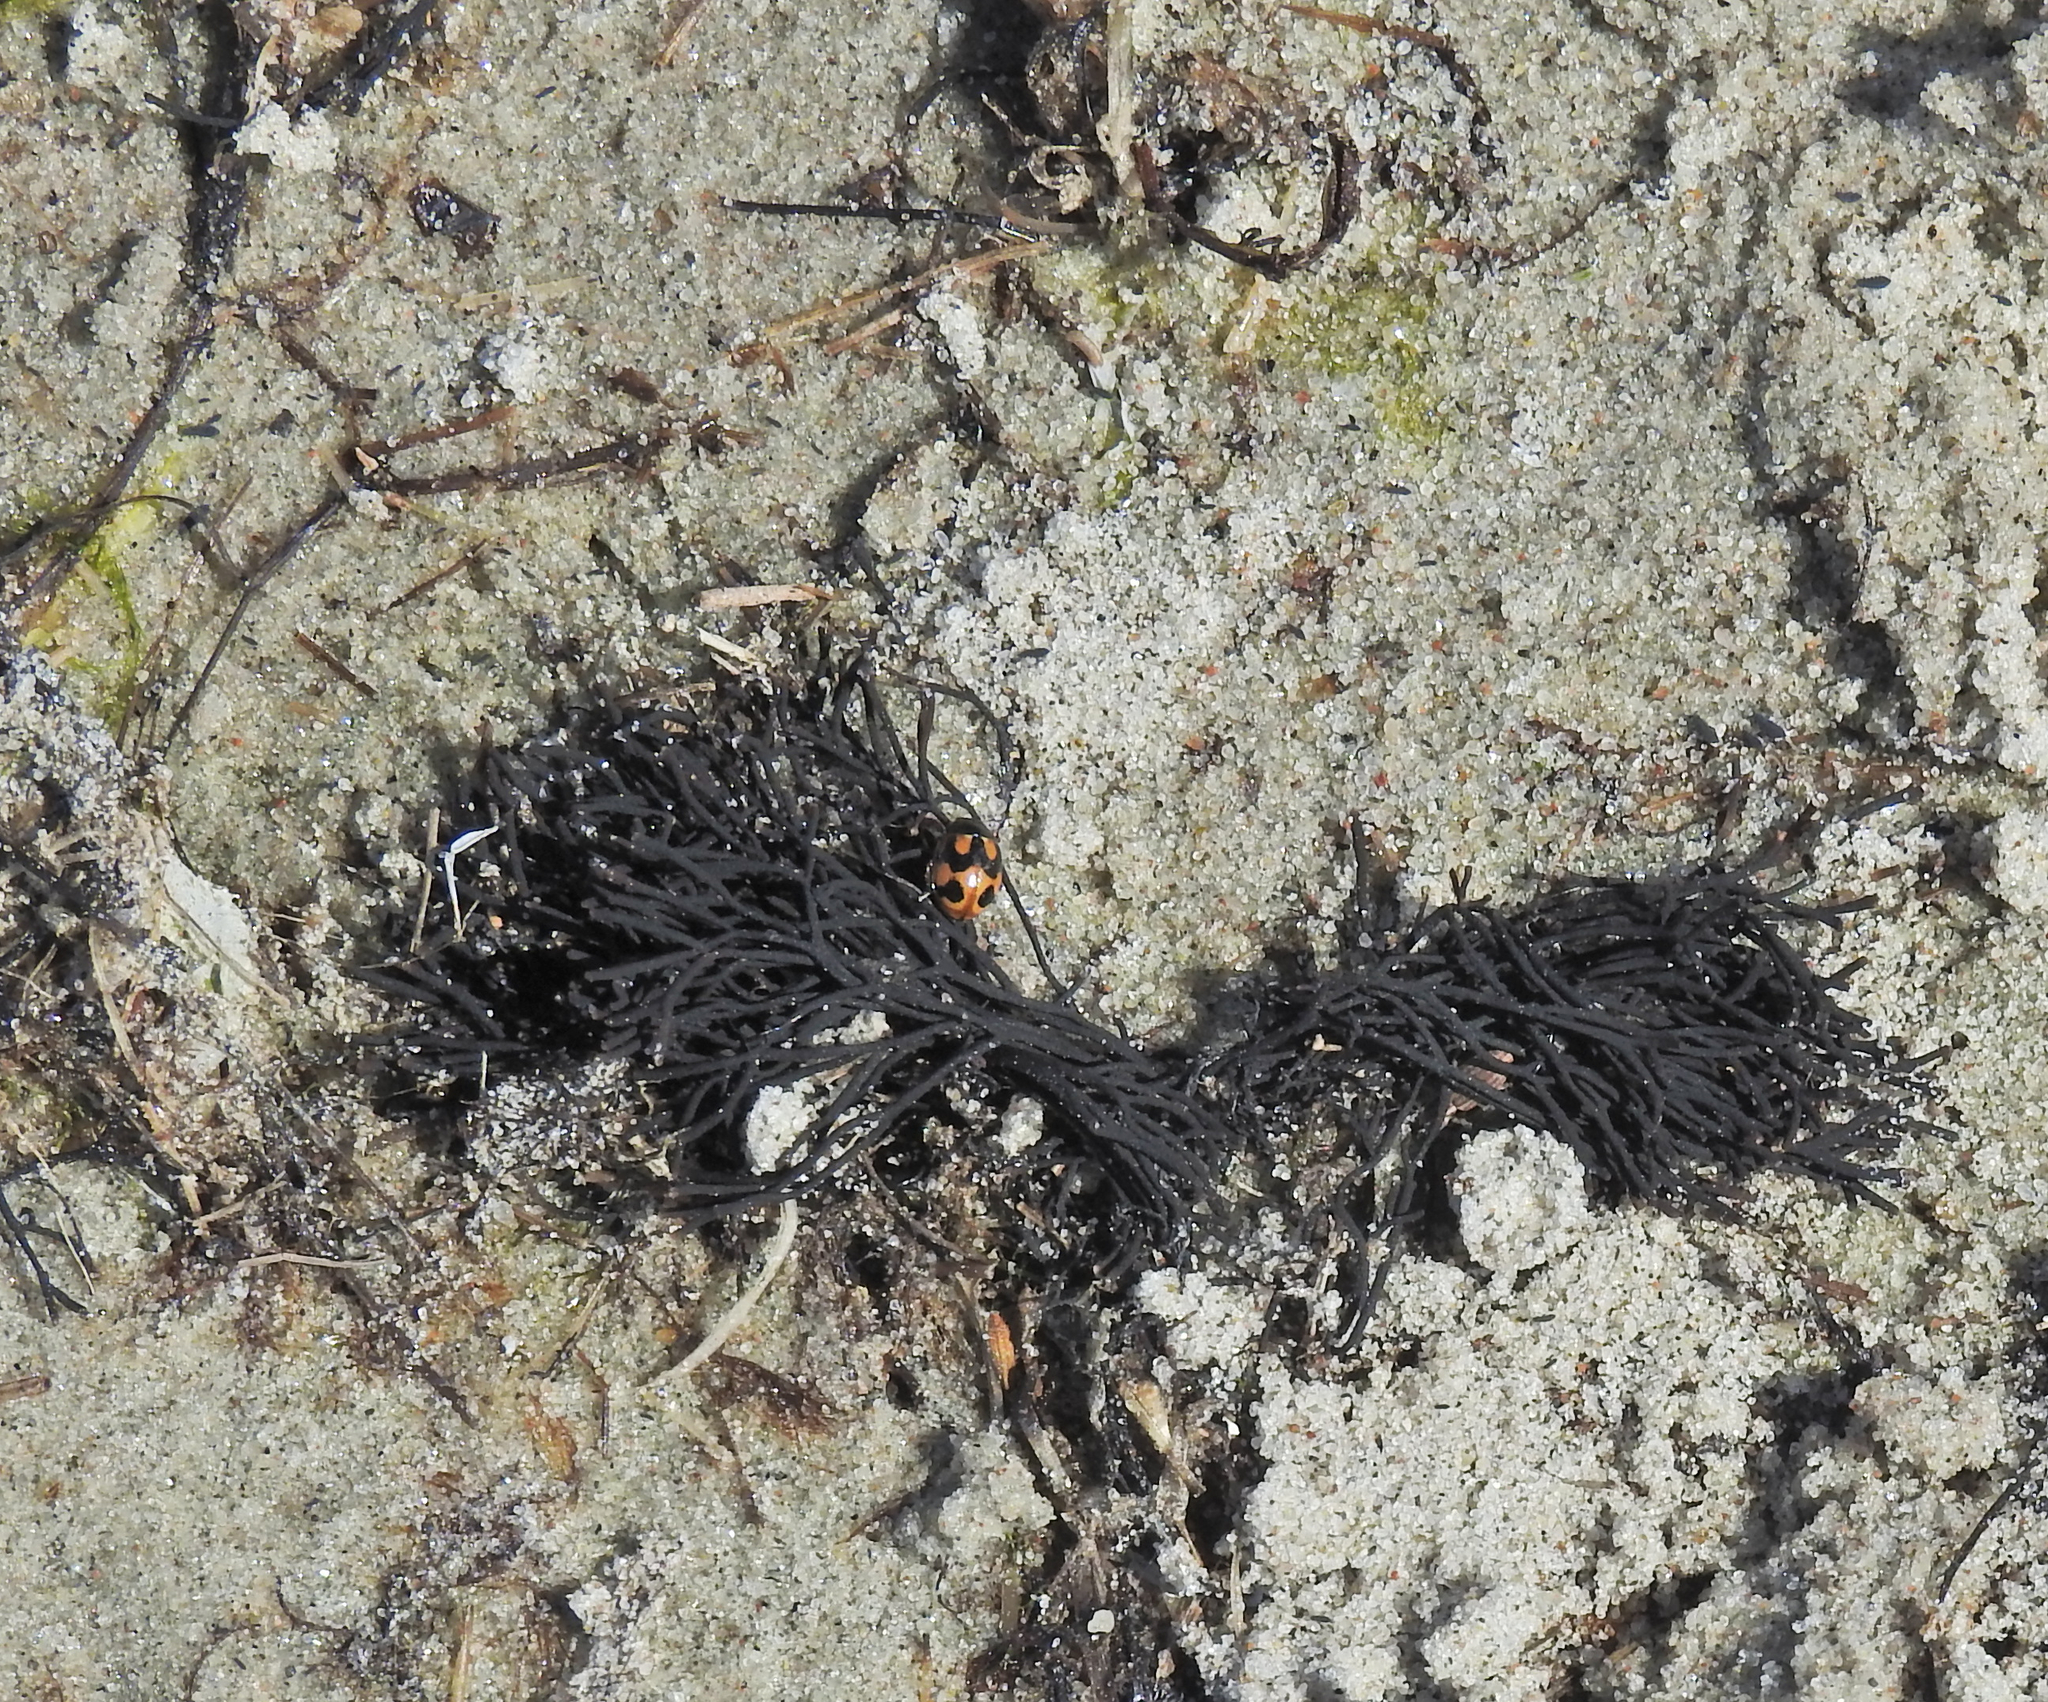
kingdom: Animalia
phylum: Arthropoda
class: Insecta
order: Coleoptera
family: Coccinellidae
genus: Coccinella
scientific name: Coccinella hieroglyphica
